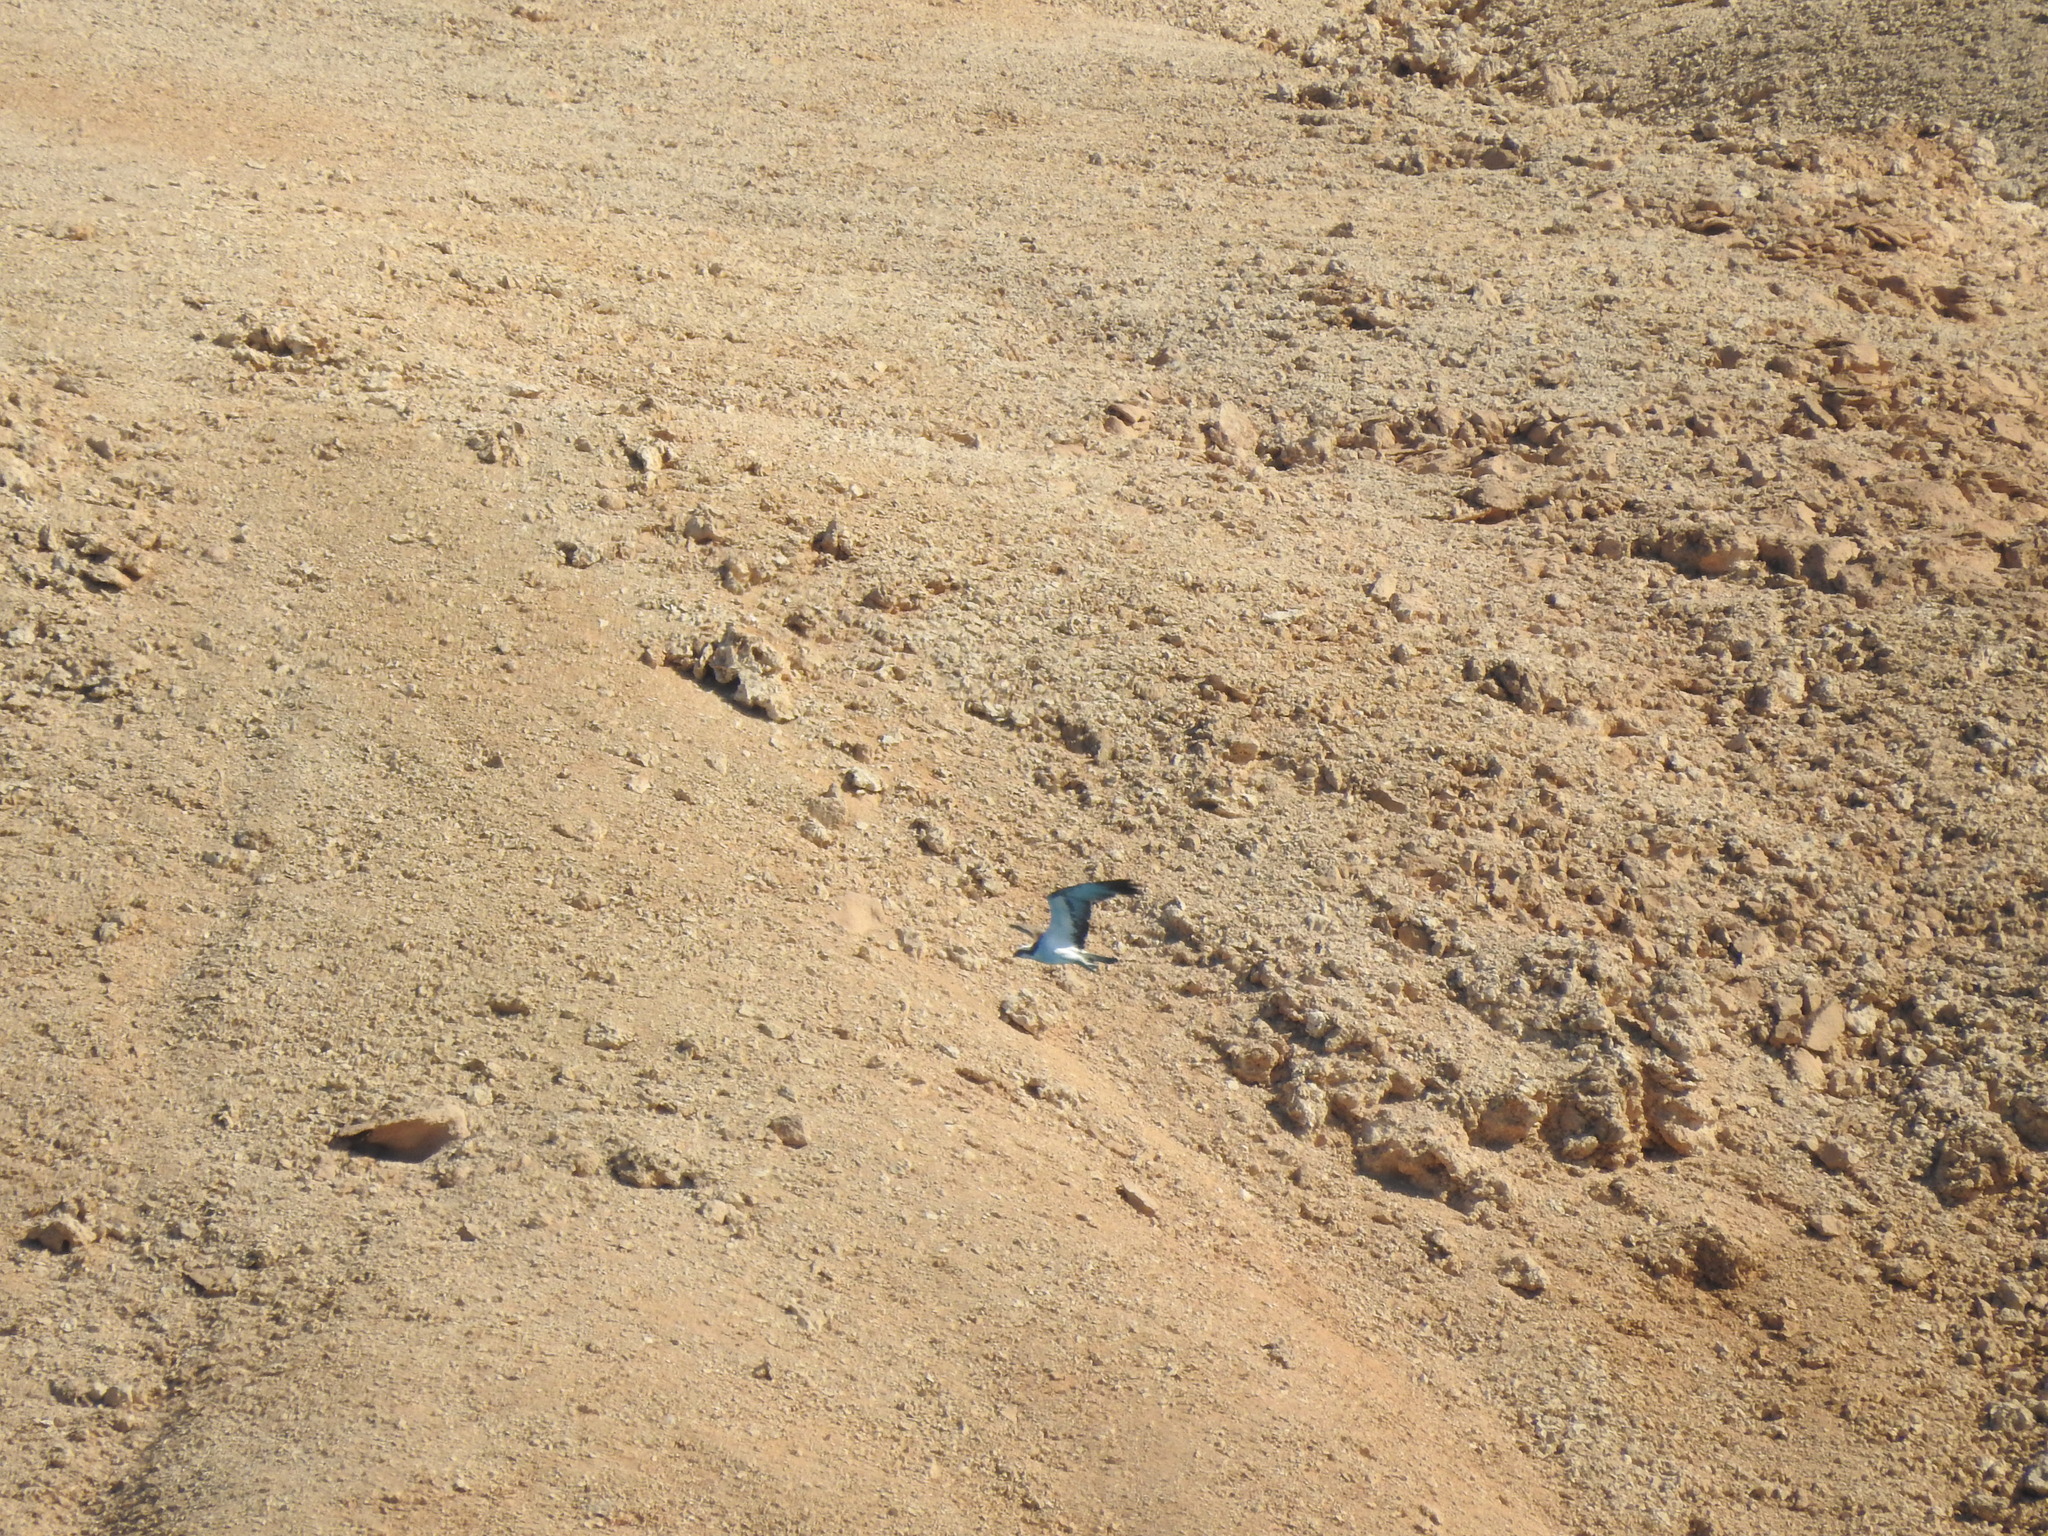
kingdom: Animalia
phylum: Chordata
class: Aves
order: Accipitriformes
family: Pandionidae
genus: Pandion
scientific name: Pandion haliaetus
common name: Osprey
